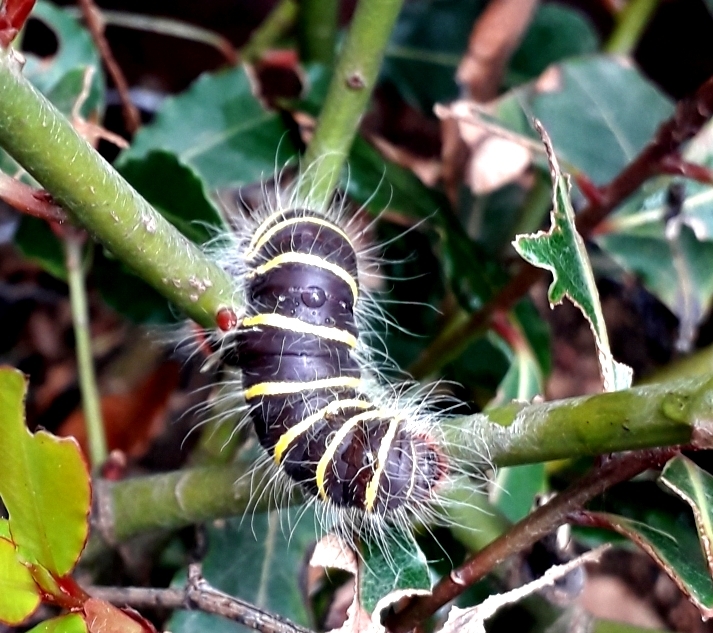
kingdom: Animalia
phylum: Arthropoda
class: Insecta
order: Lepidoptera
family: Hesperiidae
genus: Pyrrhopyge
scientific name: Pyrrhopyge charybdis
